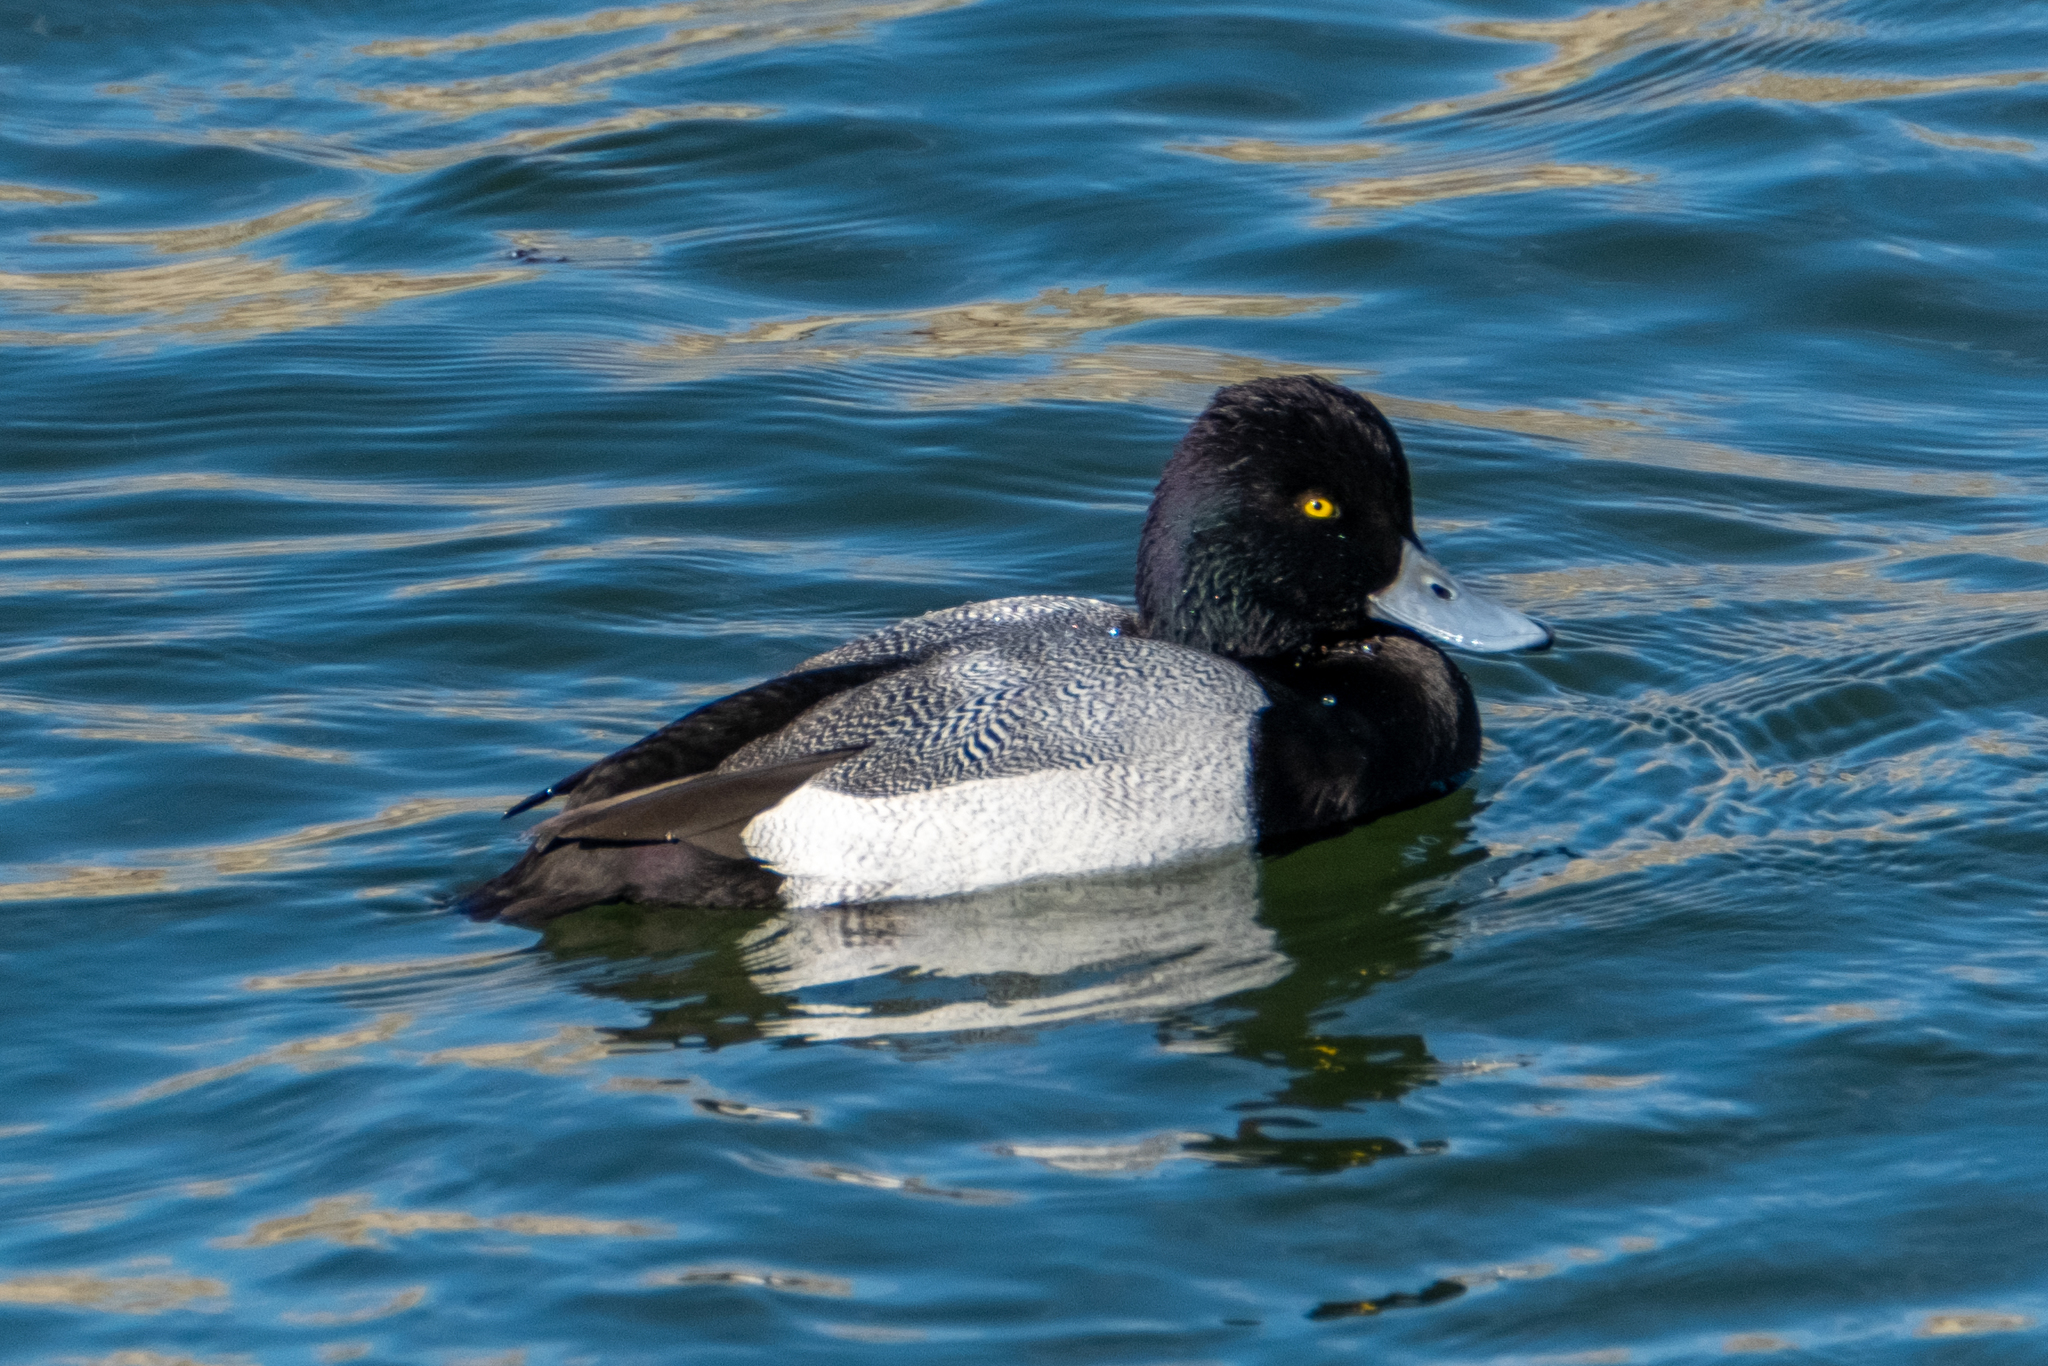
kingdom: Animalia
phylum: Chordata
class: Aves
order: Anseriformes
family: Anatidae
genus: Aythya
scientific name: Aythya affinis
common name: Lesser scaup
